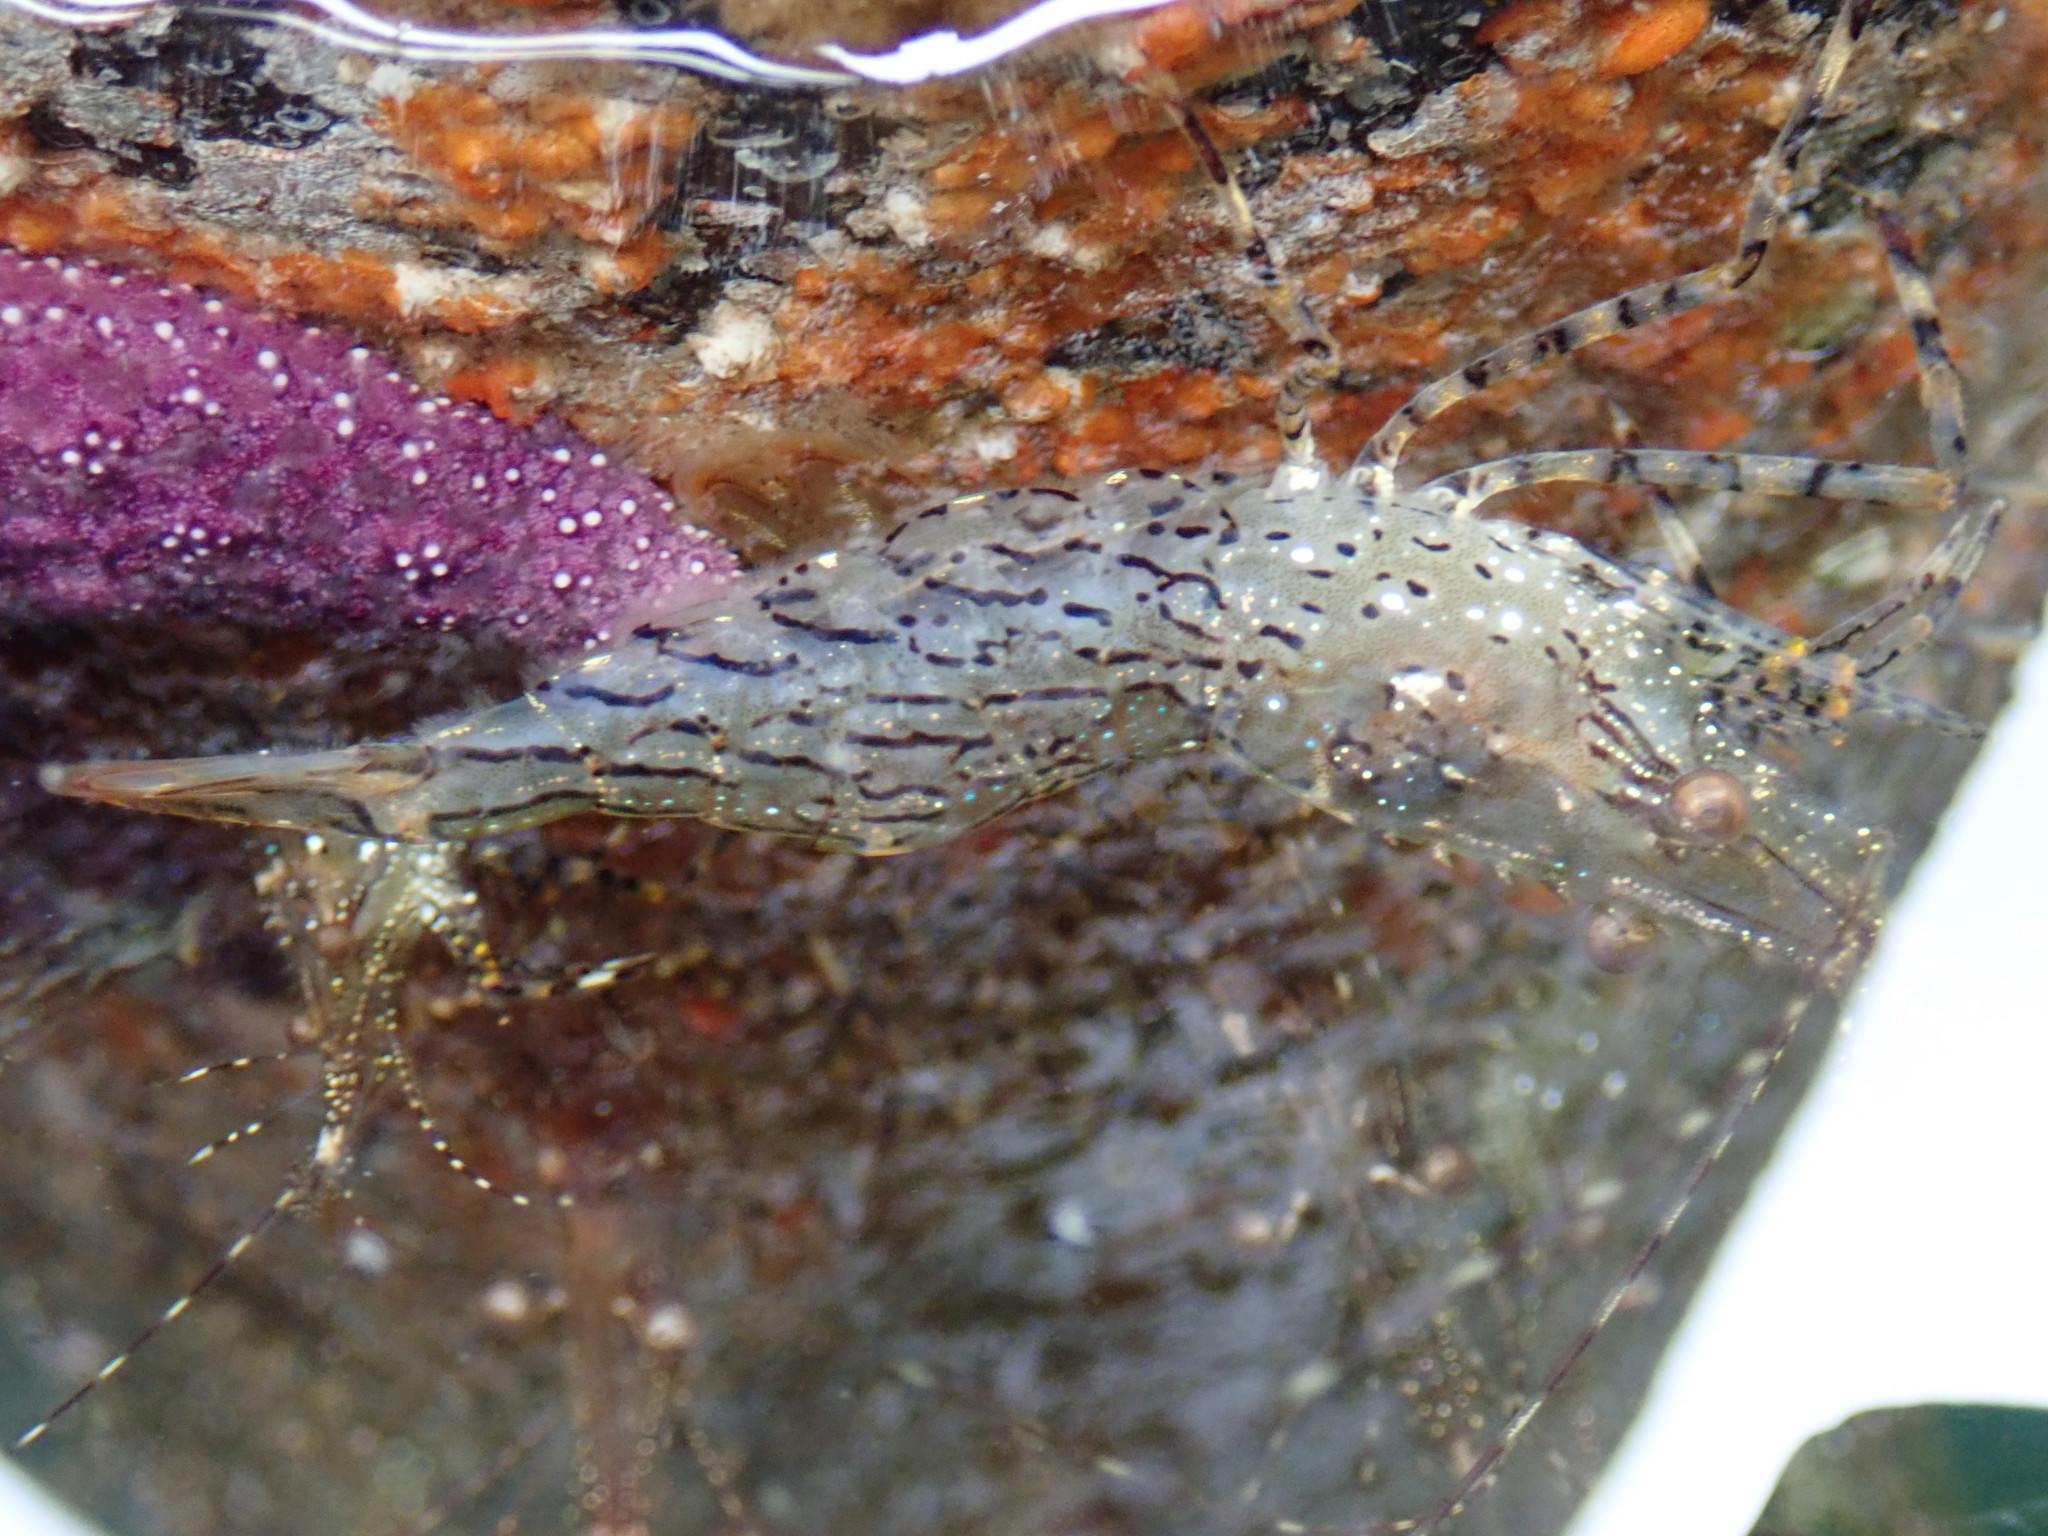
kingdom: Animalia
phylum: Arthropoda
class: Malacostraca
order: Decapoda
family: Pandalidae
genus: Pandalus
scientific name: Pandalus danae
